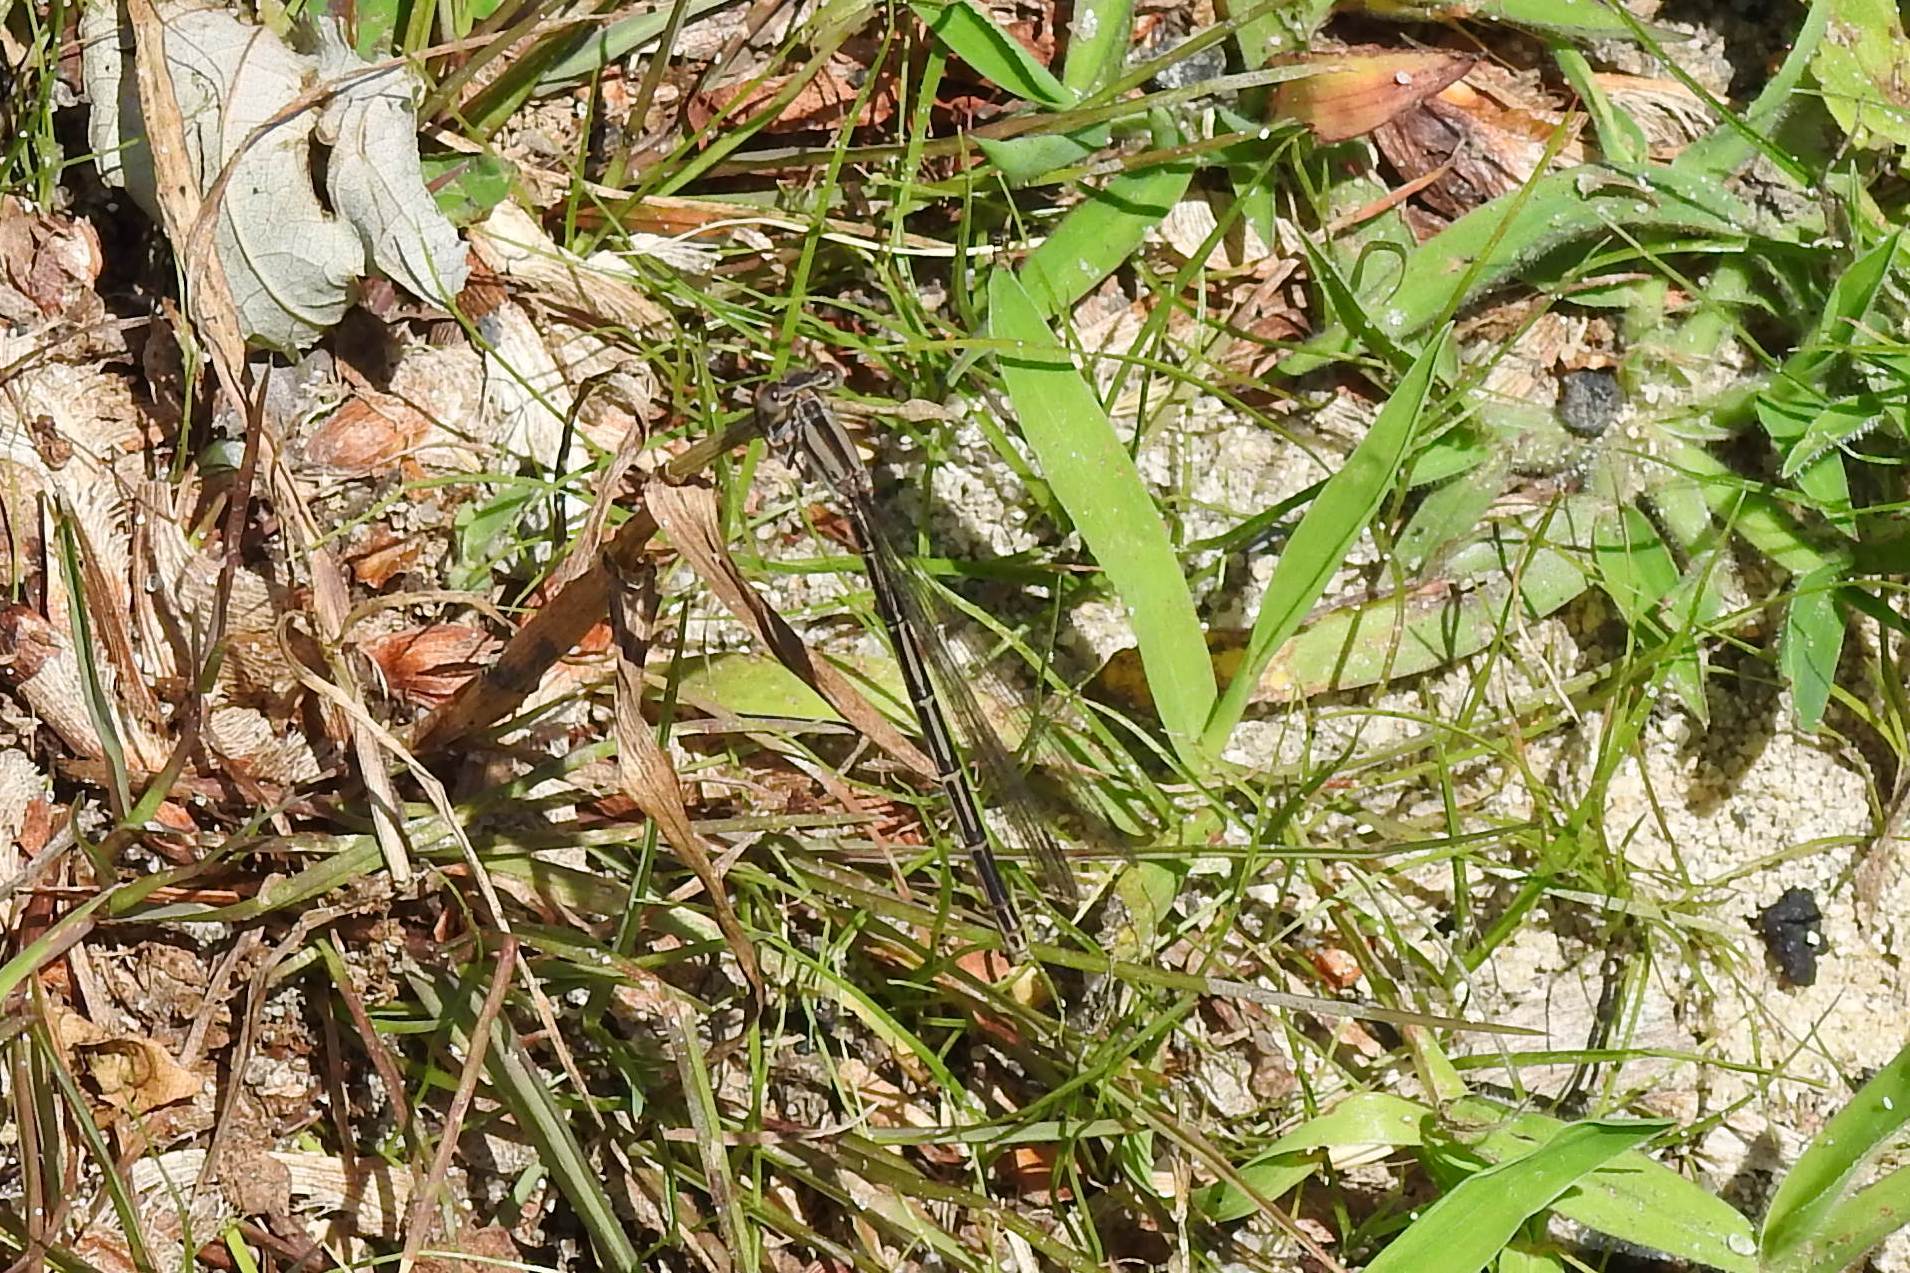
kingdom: Animalia
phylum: Arthropoda
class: Insecta
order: Odonata
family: Coenagrionidae
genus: Argia
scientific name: Argia fumipennis
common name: Variable dancer
